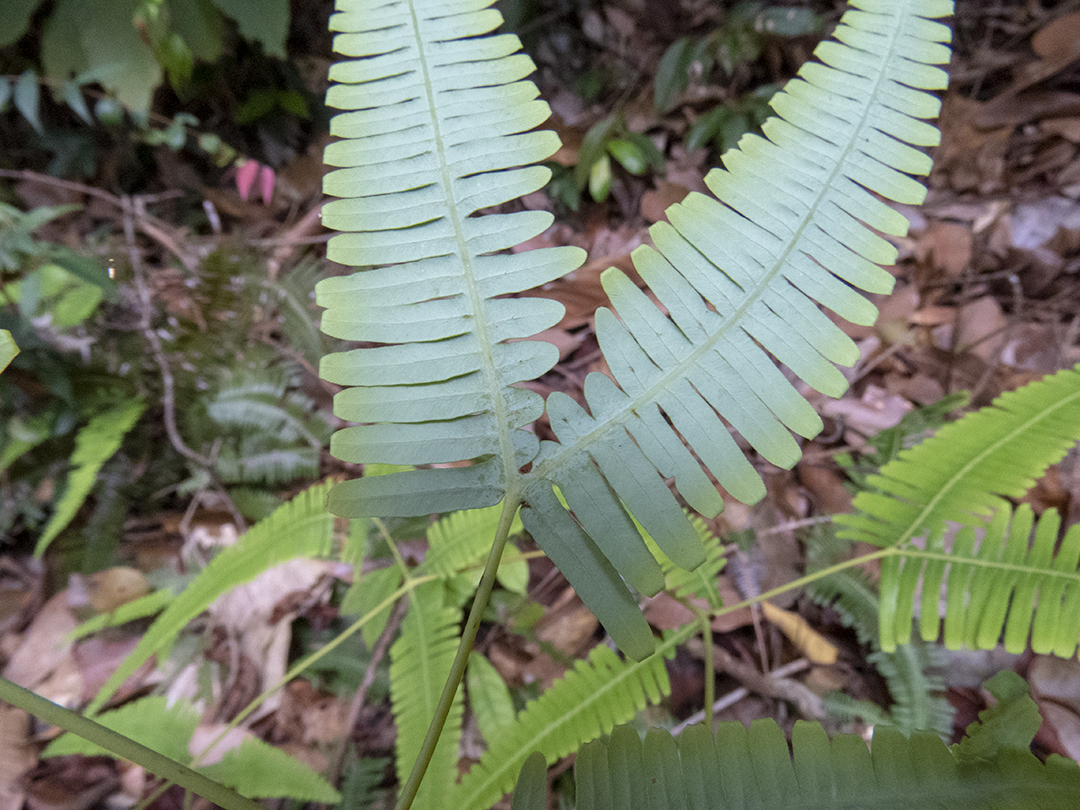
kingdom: Plantae
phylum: Tracheophyta
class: Polypodiopsida
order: Gleicheniales
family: Gleicheniaceae
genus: Dicranopteris
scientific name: Dicranopteris linearis
